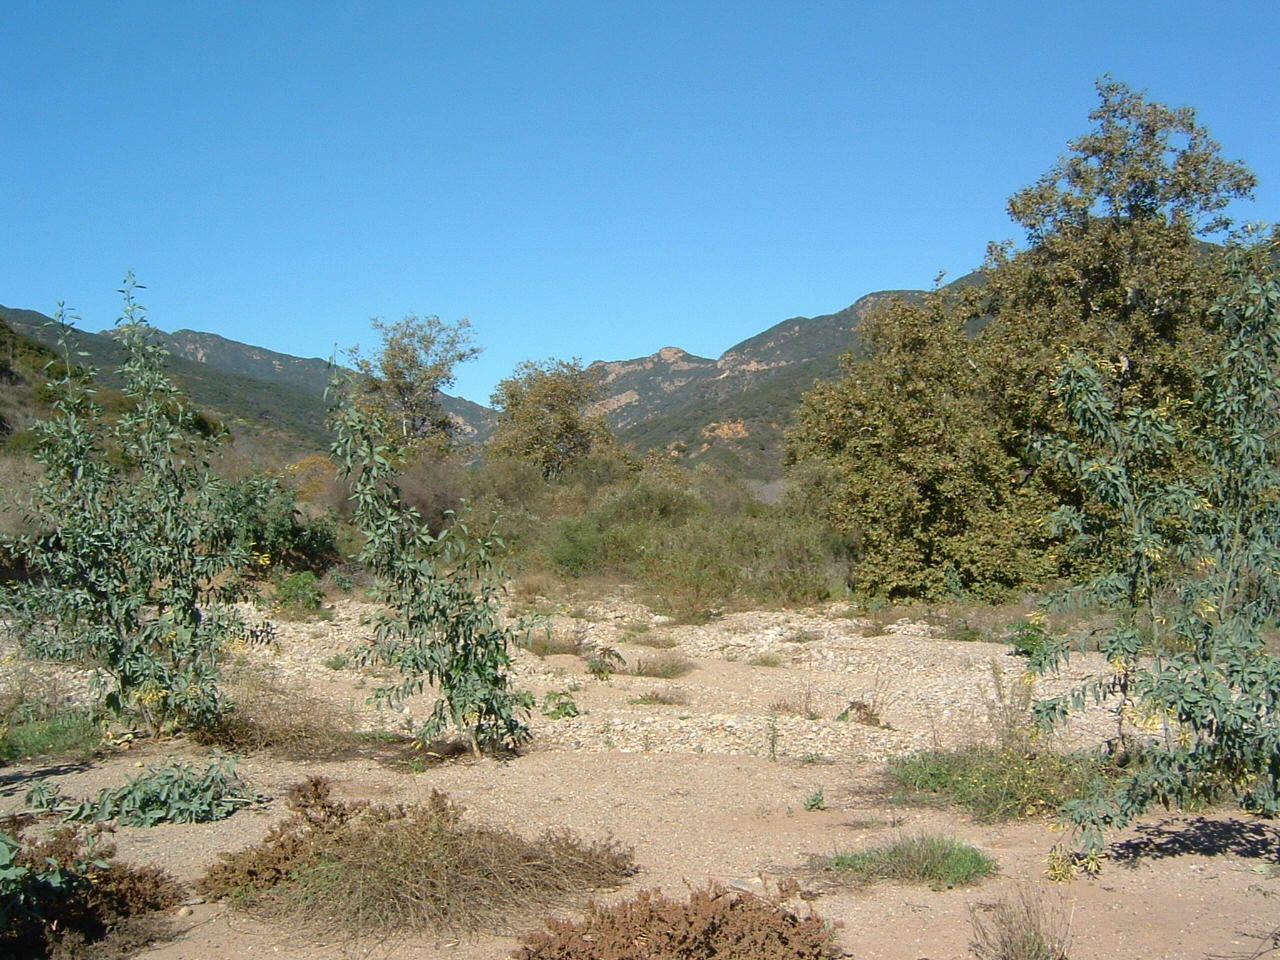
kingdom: Plantae
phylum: Tracheophyta
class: Magnoliopsida
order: Solanales
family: Solanaceae
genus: Nicotiana
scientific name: Nicotiana glauca
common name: Tree tobacco
